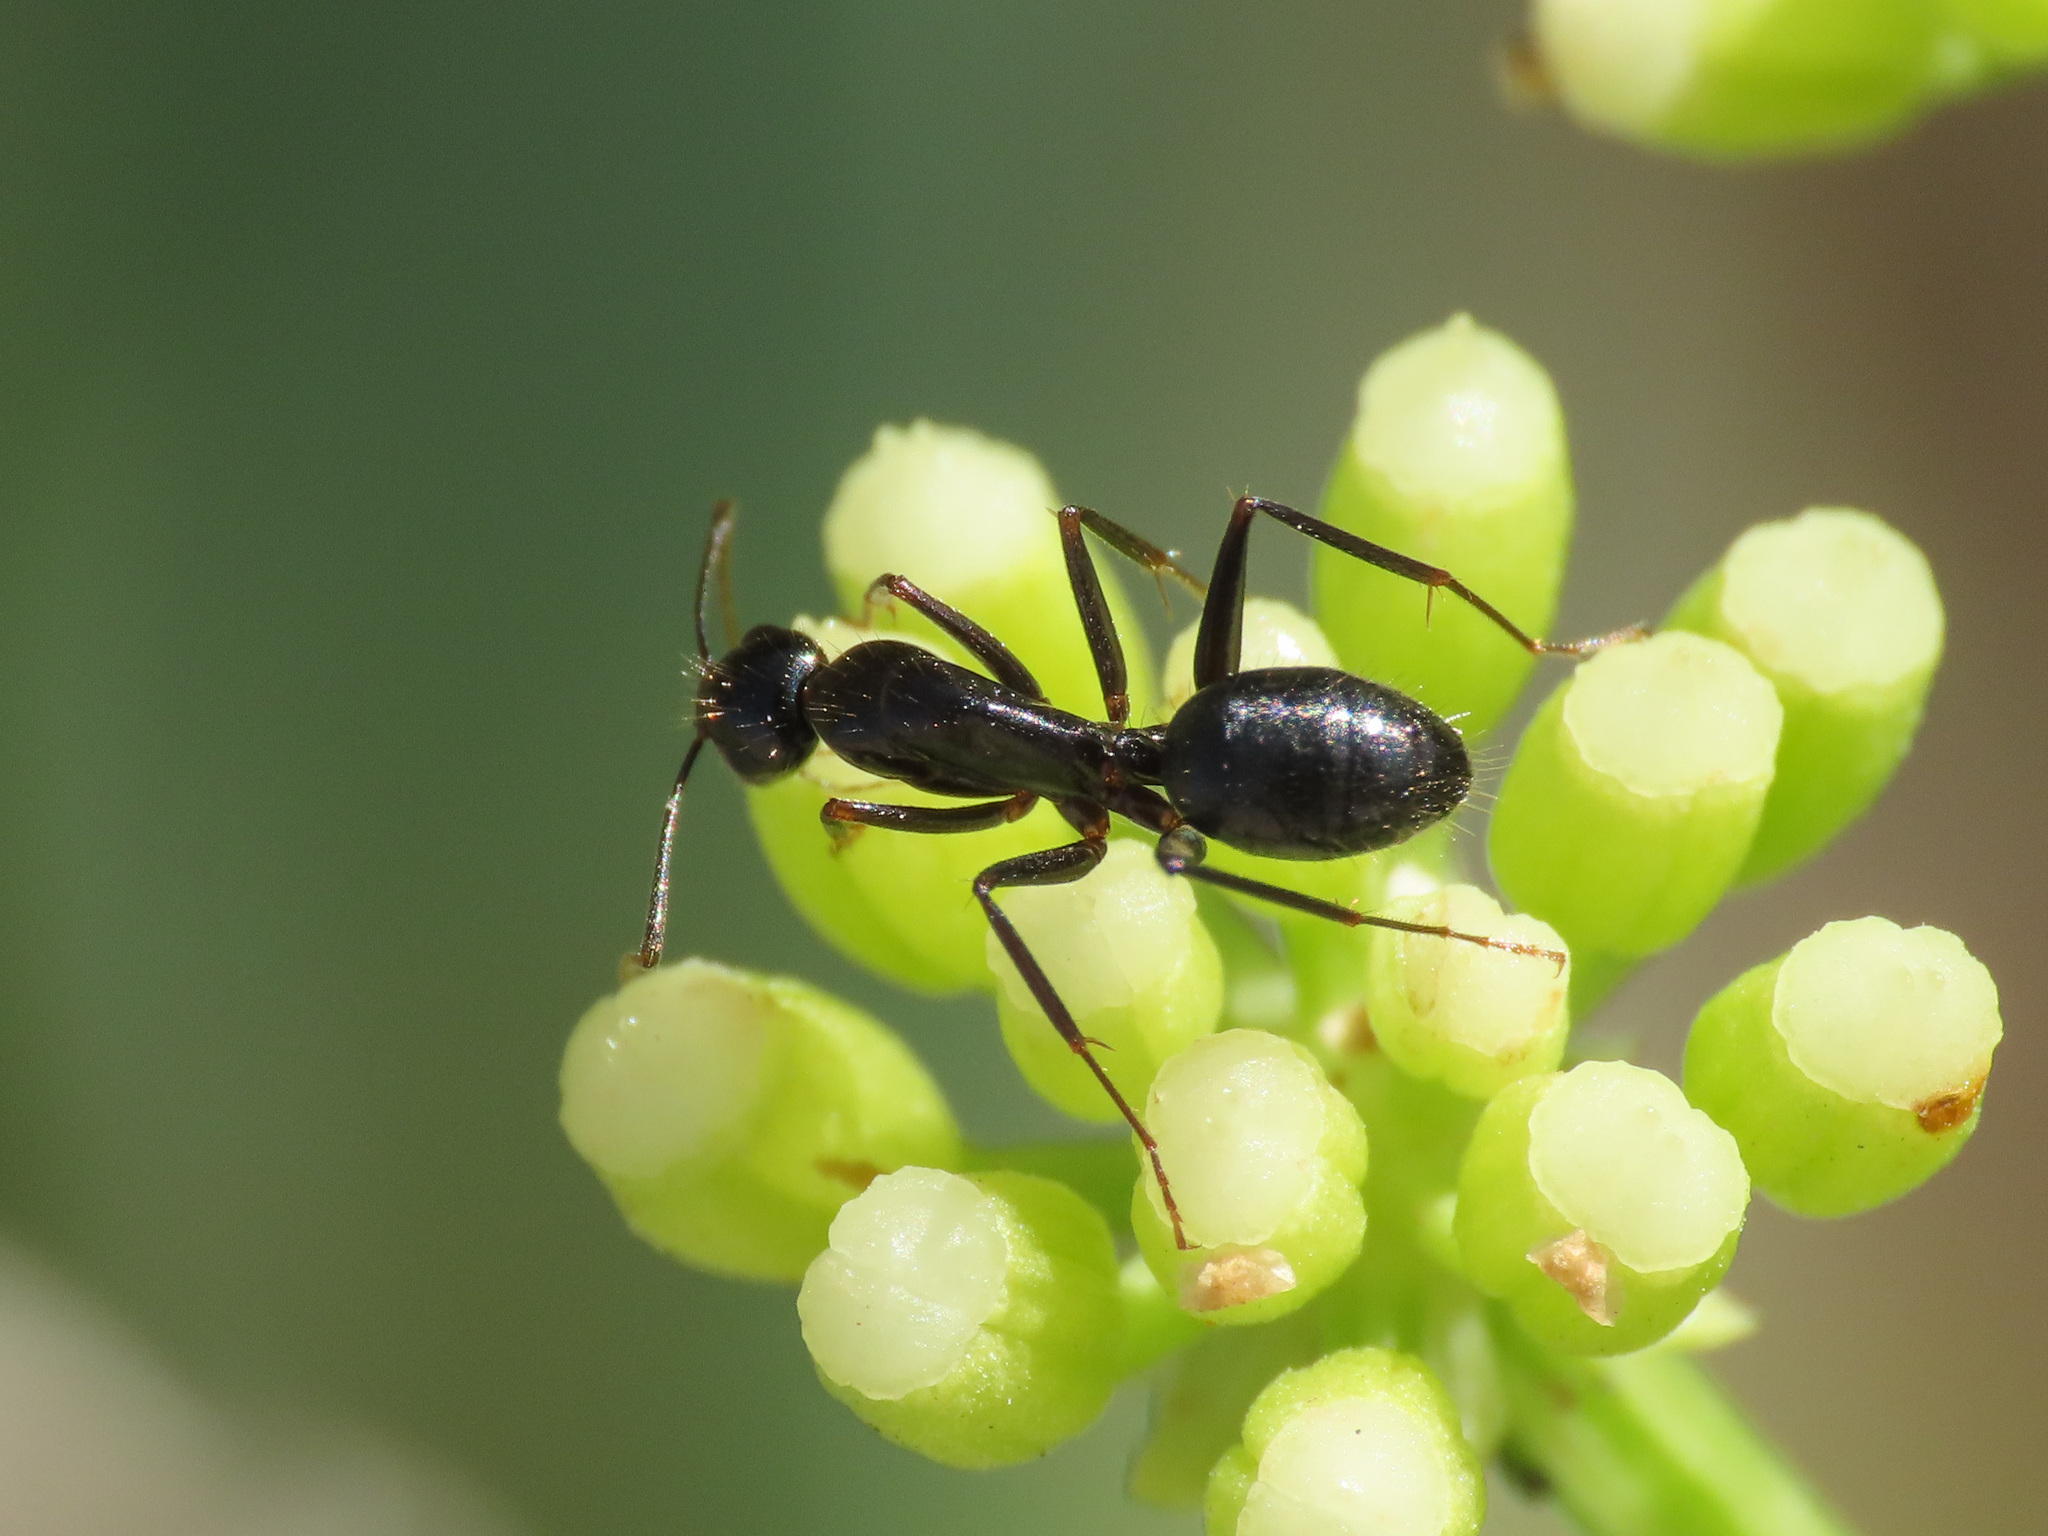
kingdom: Animalia
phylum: Arthropoda
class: Insecta
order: Hymenoptera
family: Formicidae
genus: Camponotus
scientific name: Camponotus aethiops
